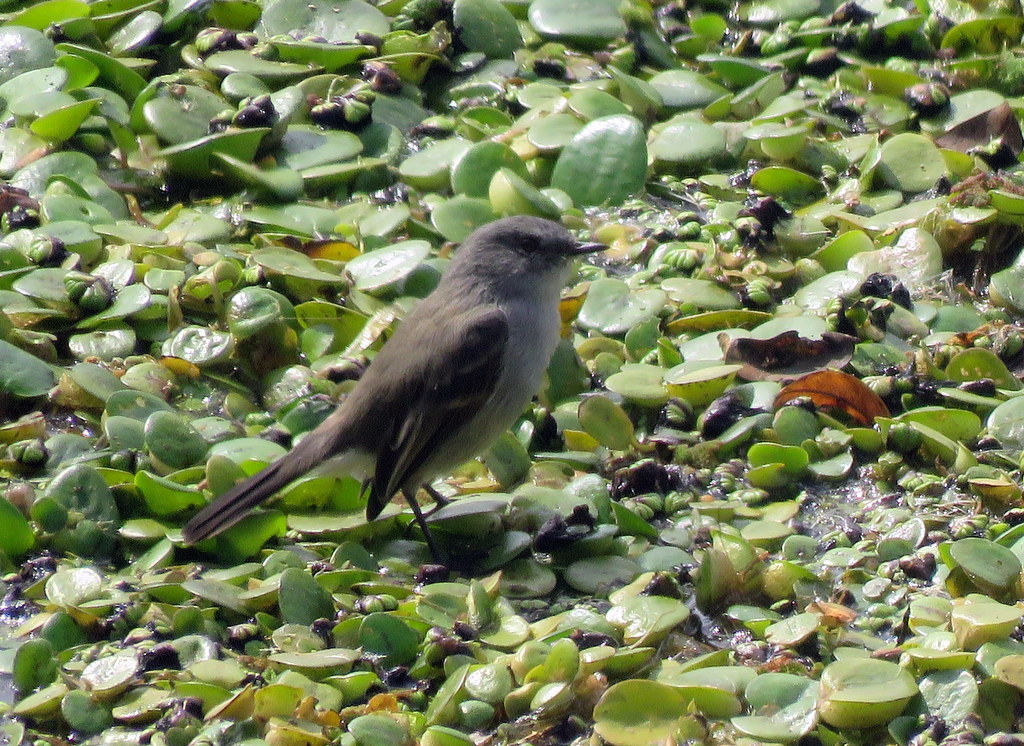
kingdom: Animalia
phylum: Chordata
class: Aves
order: Passeriformes
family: Tyrannidae
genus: Serpophaga
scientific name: Serpophaga nigricans
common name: Sooty tyrannulet
